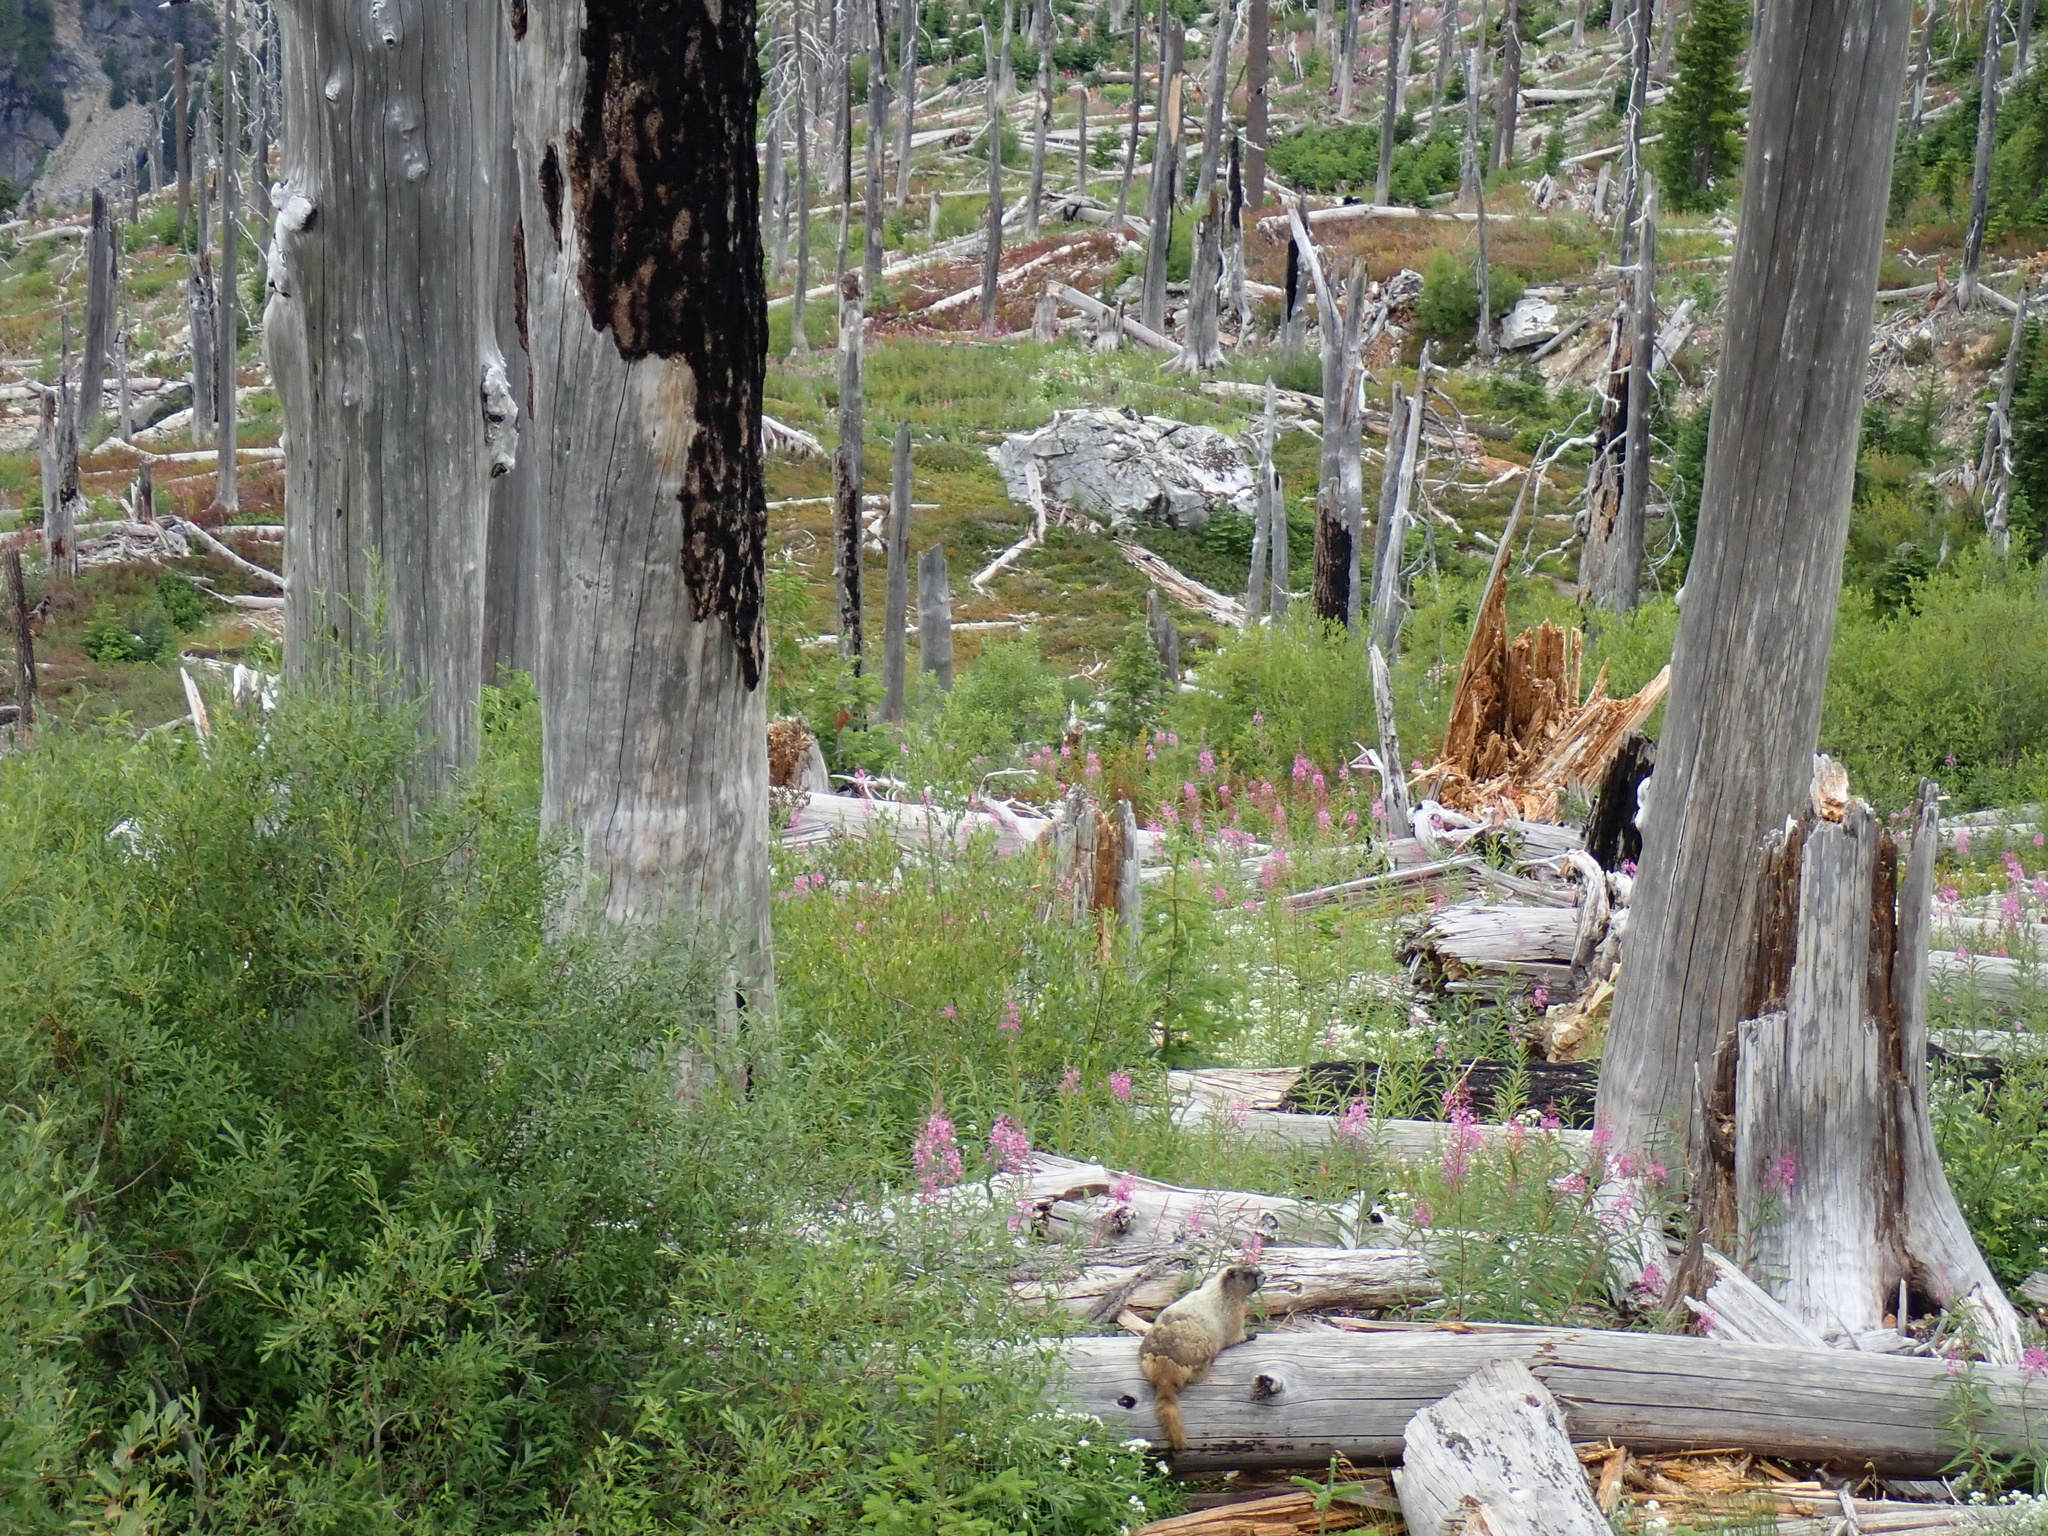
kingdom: Animalia
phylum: Chordata
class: Mammalia
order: Rodentia
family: Sciuridae
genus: Marmota
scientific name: Marmota caligata
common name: Hoary marmot
